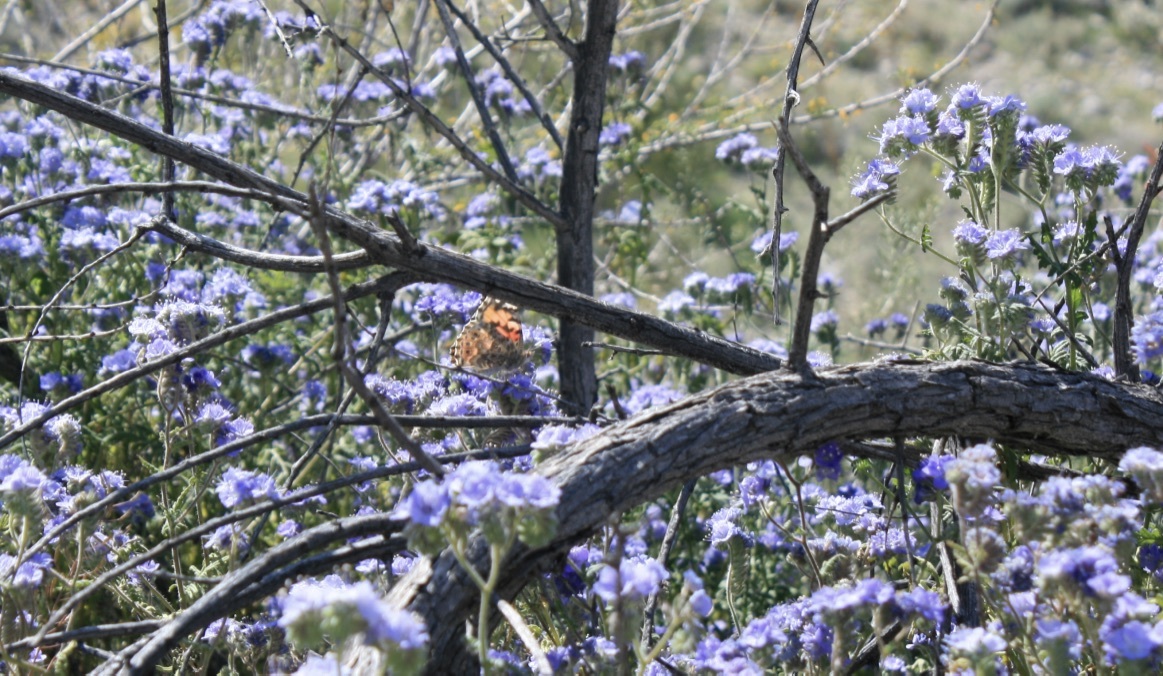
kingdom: Animalia
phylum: Arthropoda
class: Insecta
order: Lepidoptera
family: Nymphalidae
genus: Vanessa
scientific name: Vanessa cardui
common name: Painted lady
